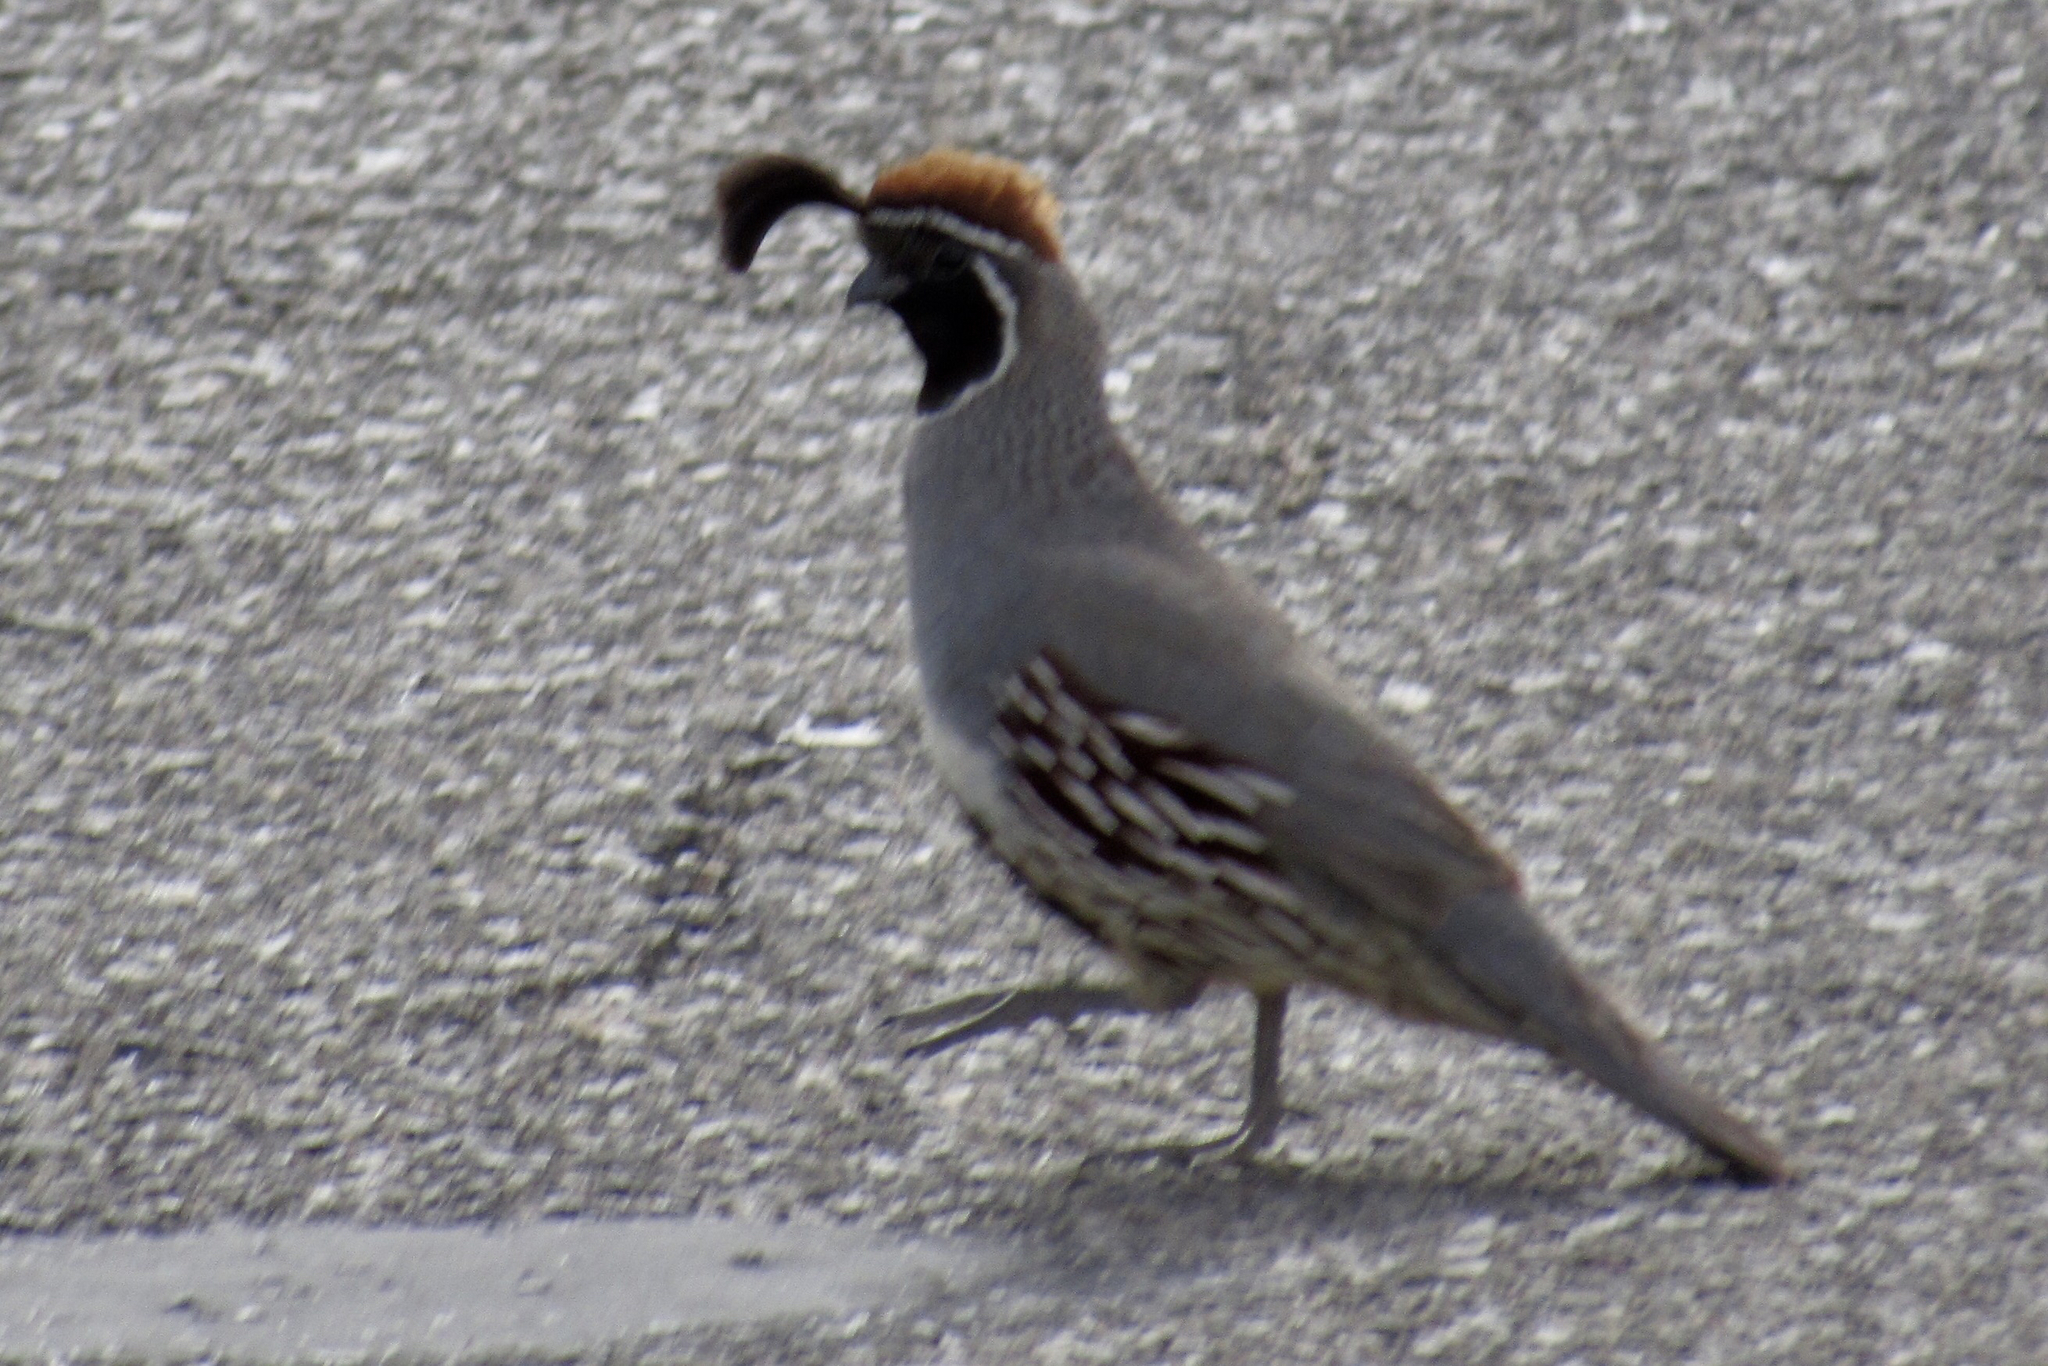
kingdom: Animalia
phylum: Chordata
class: Aves
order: Galliformes
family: Odontophoridae
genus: Callipepla
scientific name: Callipepla gambelii
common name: Gambel's quail
